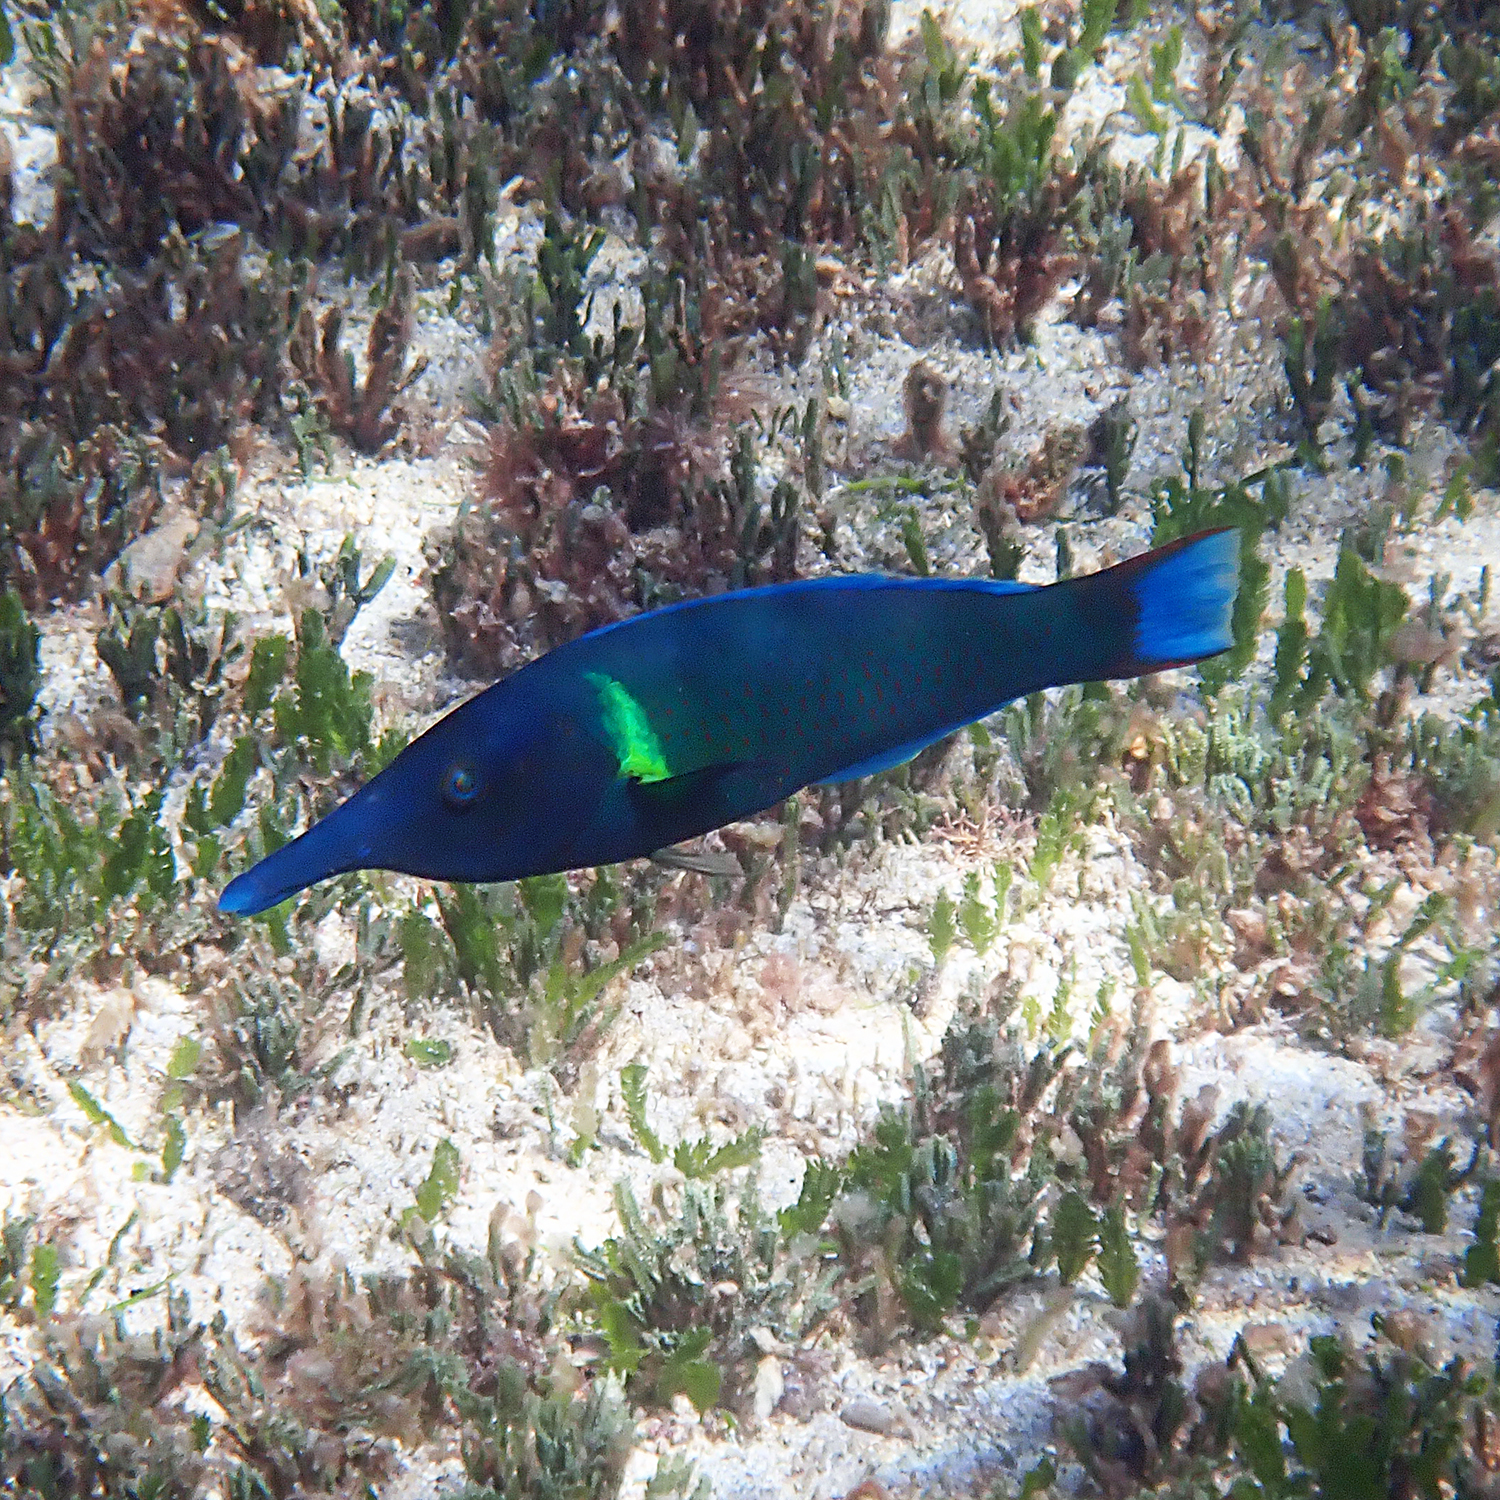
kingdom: Animalia
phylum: Chordata
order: Perciformes
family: Labridae
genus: Gomphosus
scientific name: Gomphosus varius
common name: Bird wrasse
